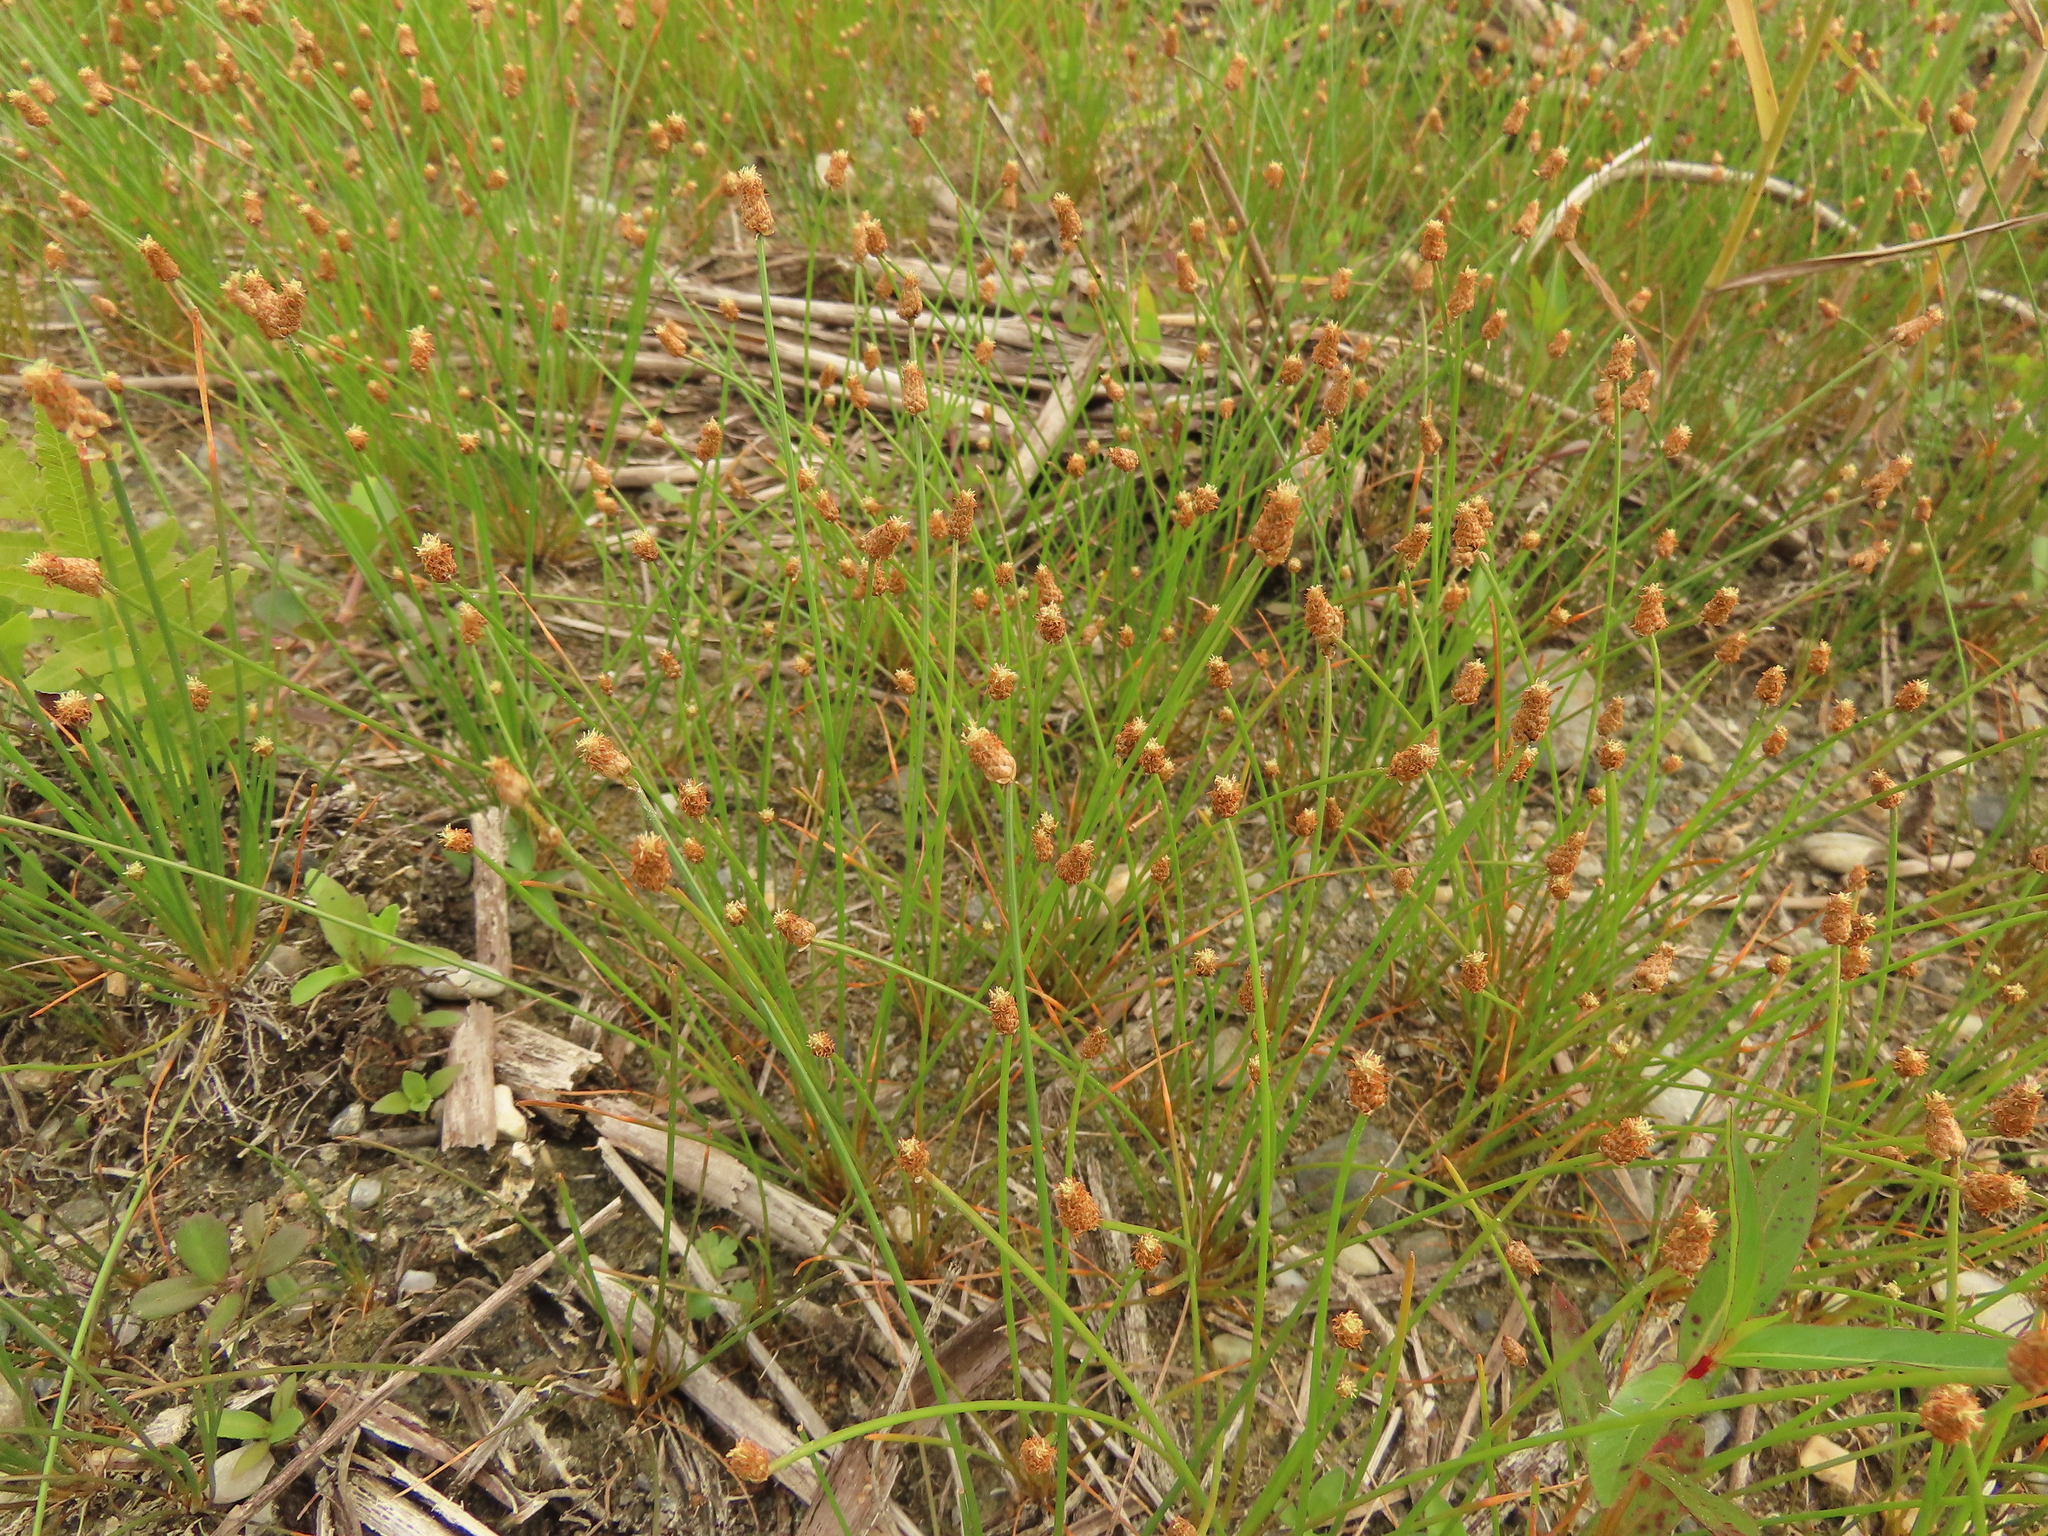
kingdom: Plantae
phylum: Tracheophyta
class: Liliopsida
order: Poales
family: Cyperaceae
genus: Eleocharis
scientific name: Eleocharis geniculata
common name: Canada spikesedge
